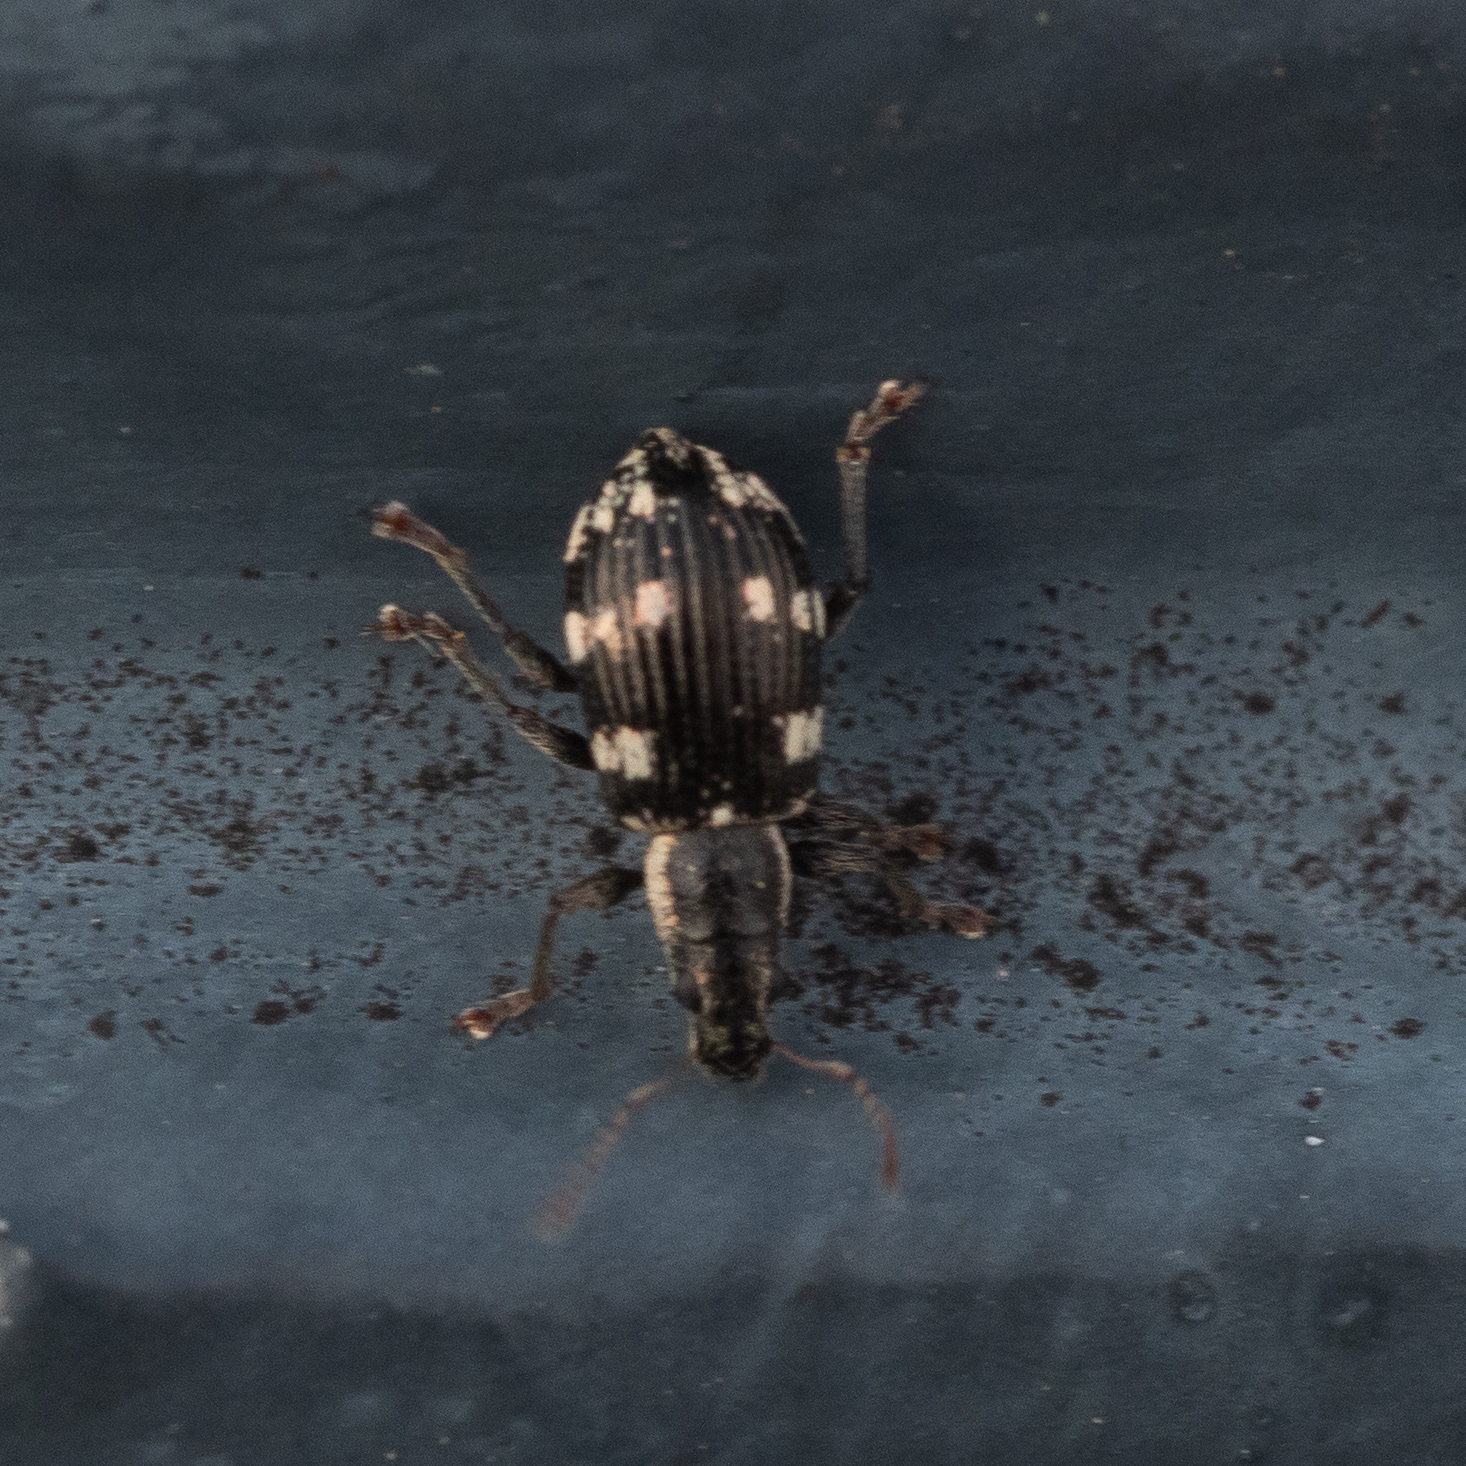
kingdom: Animalia
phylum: Arthropoda
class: Insecta
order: Coleoptera
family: Curculionidae
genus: Polydrusus
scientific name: Polydrusus picus
